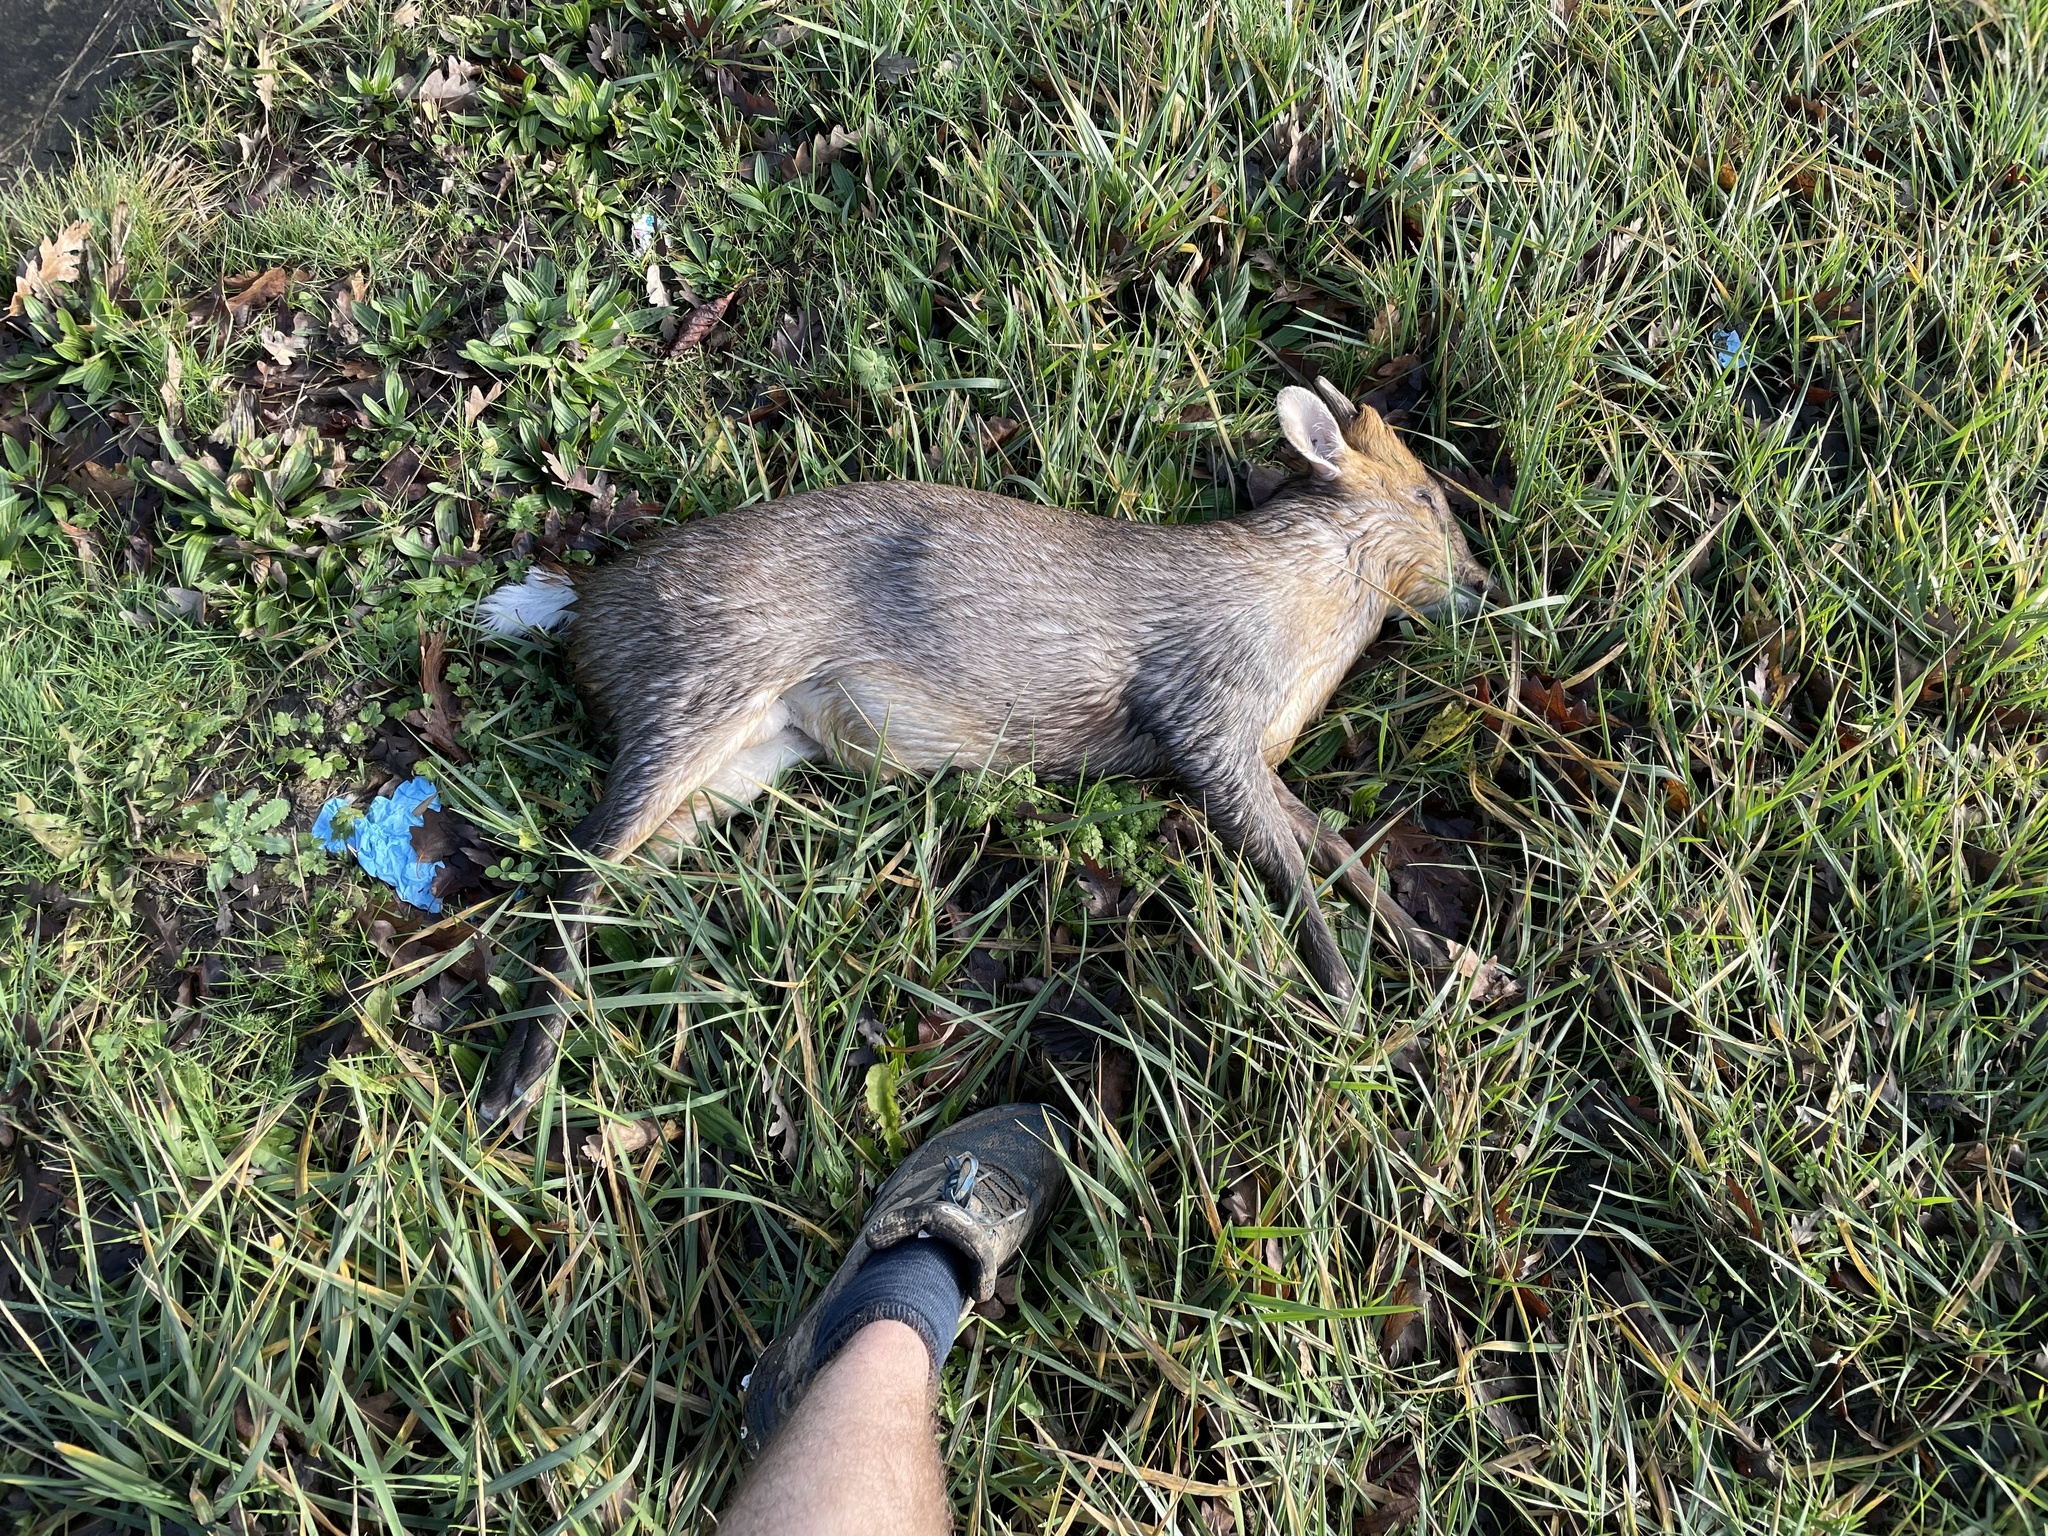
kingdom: Animalia
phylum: Chordata
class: Mammalia
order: Artiodactyla
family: Cervidae
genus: Muntiacus
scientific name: Muntiacus reevesi
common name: Reeves' muntjac
